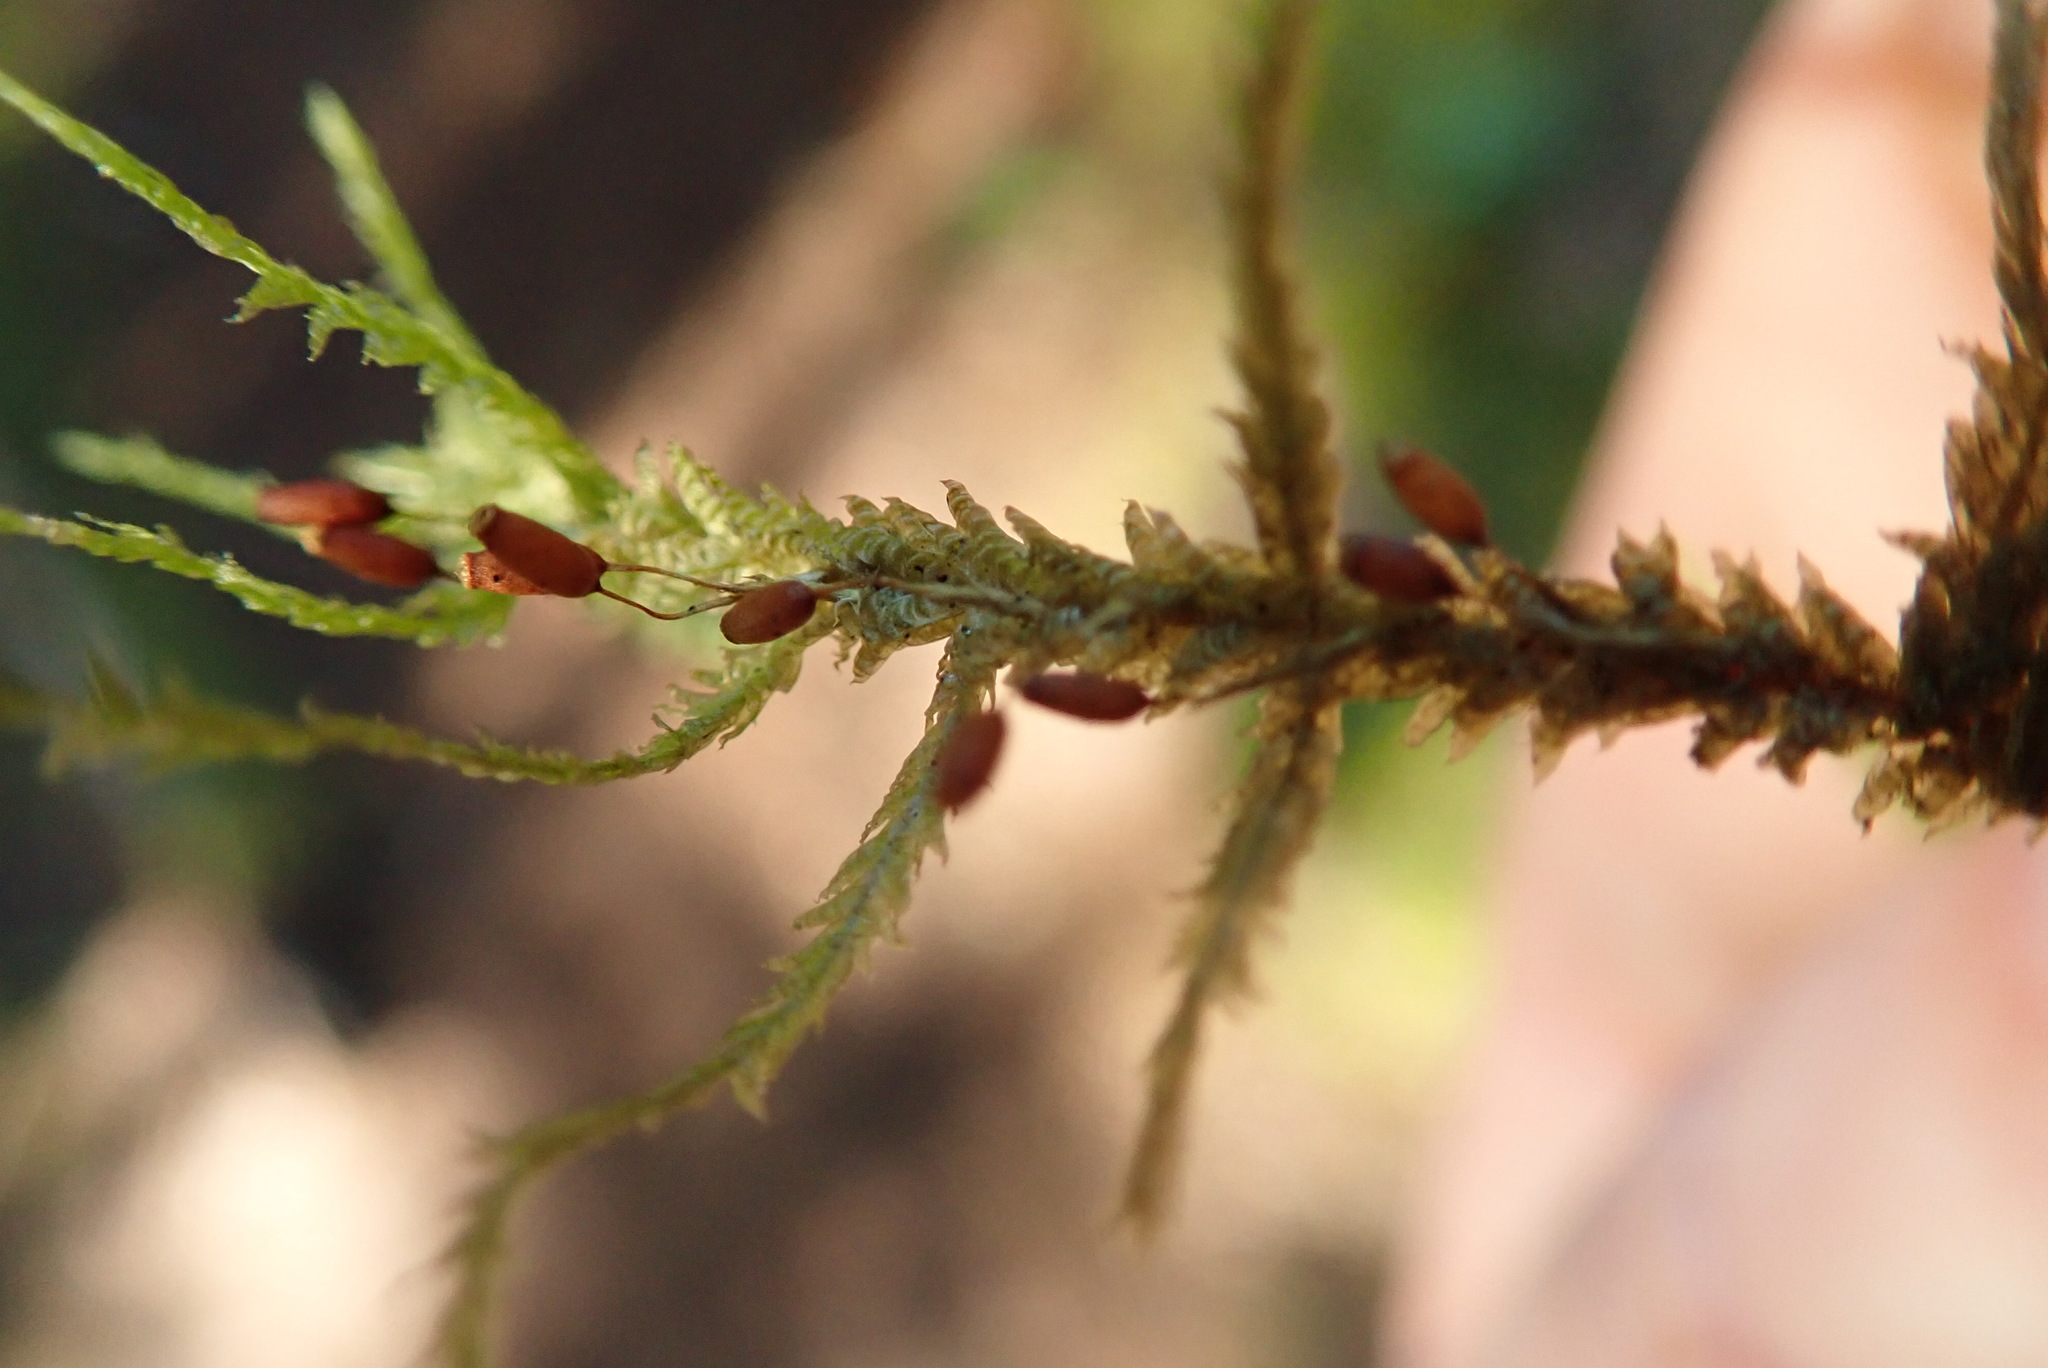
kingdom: Plantae
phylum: Bryophyta
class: Bryopsida
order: Hypnales
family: Neckeraceae
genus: Neckera
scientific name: Neckera douglasii
